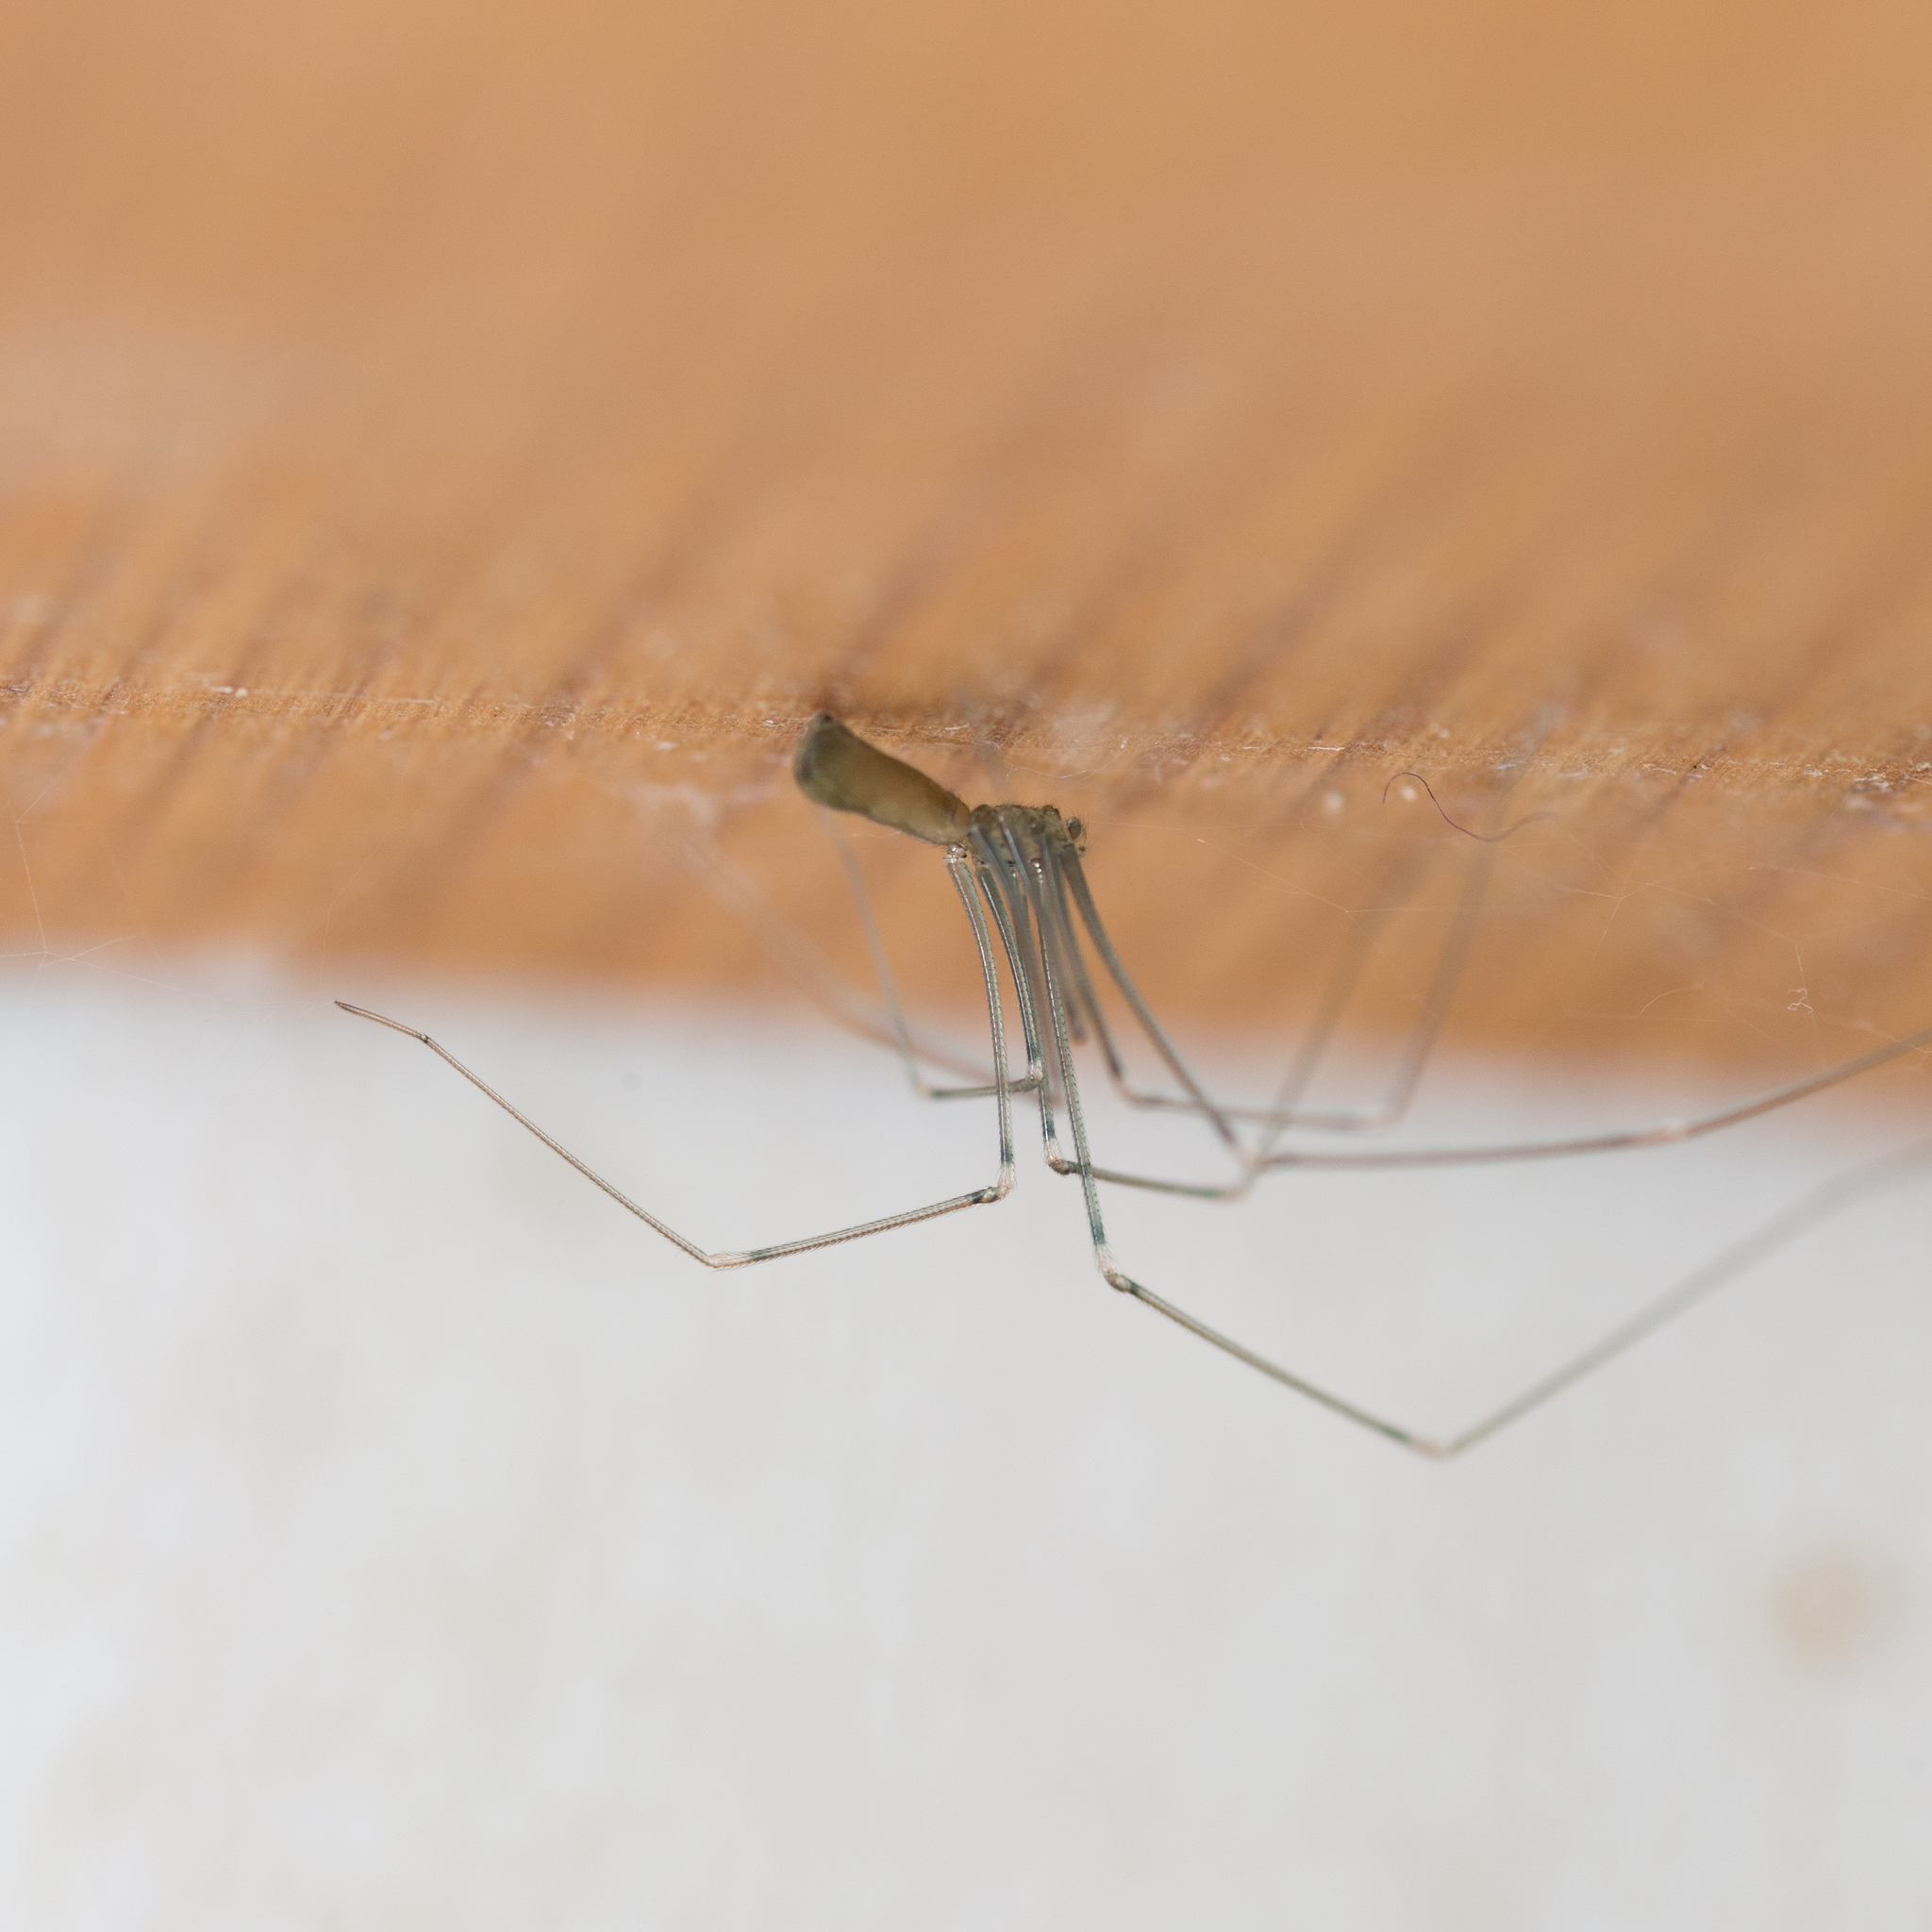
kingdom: Animalia
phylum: Arthropoda
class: Arachnida
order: Araneae
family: Pholcidae
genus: Pholcus
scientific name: Pholcus opilionoides
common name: Daddylongleg spider
